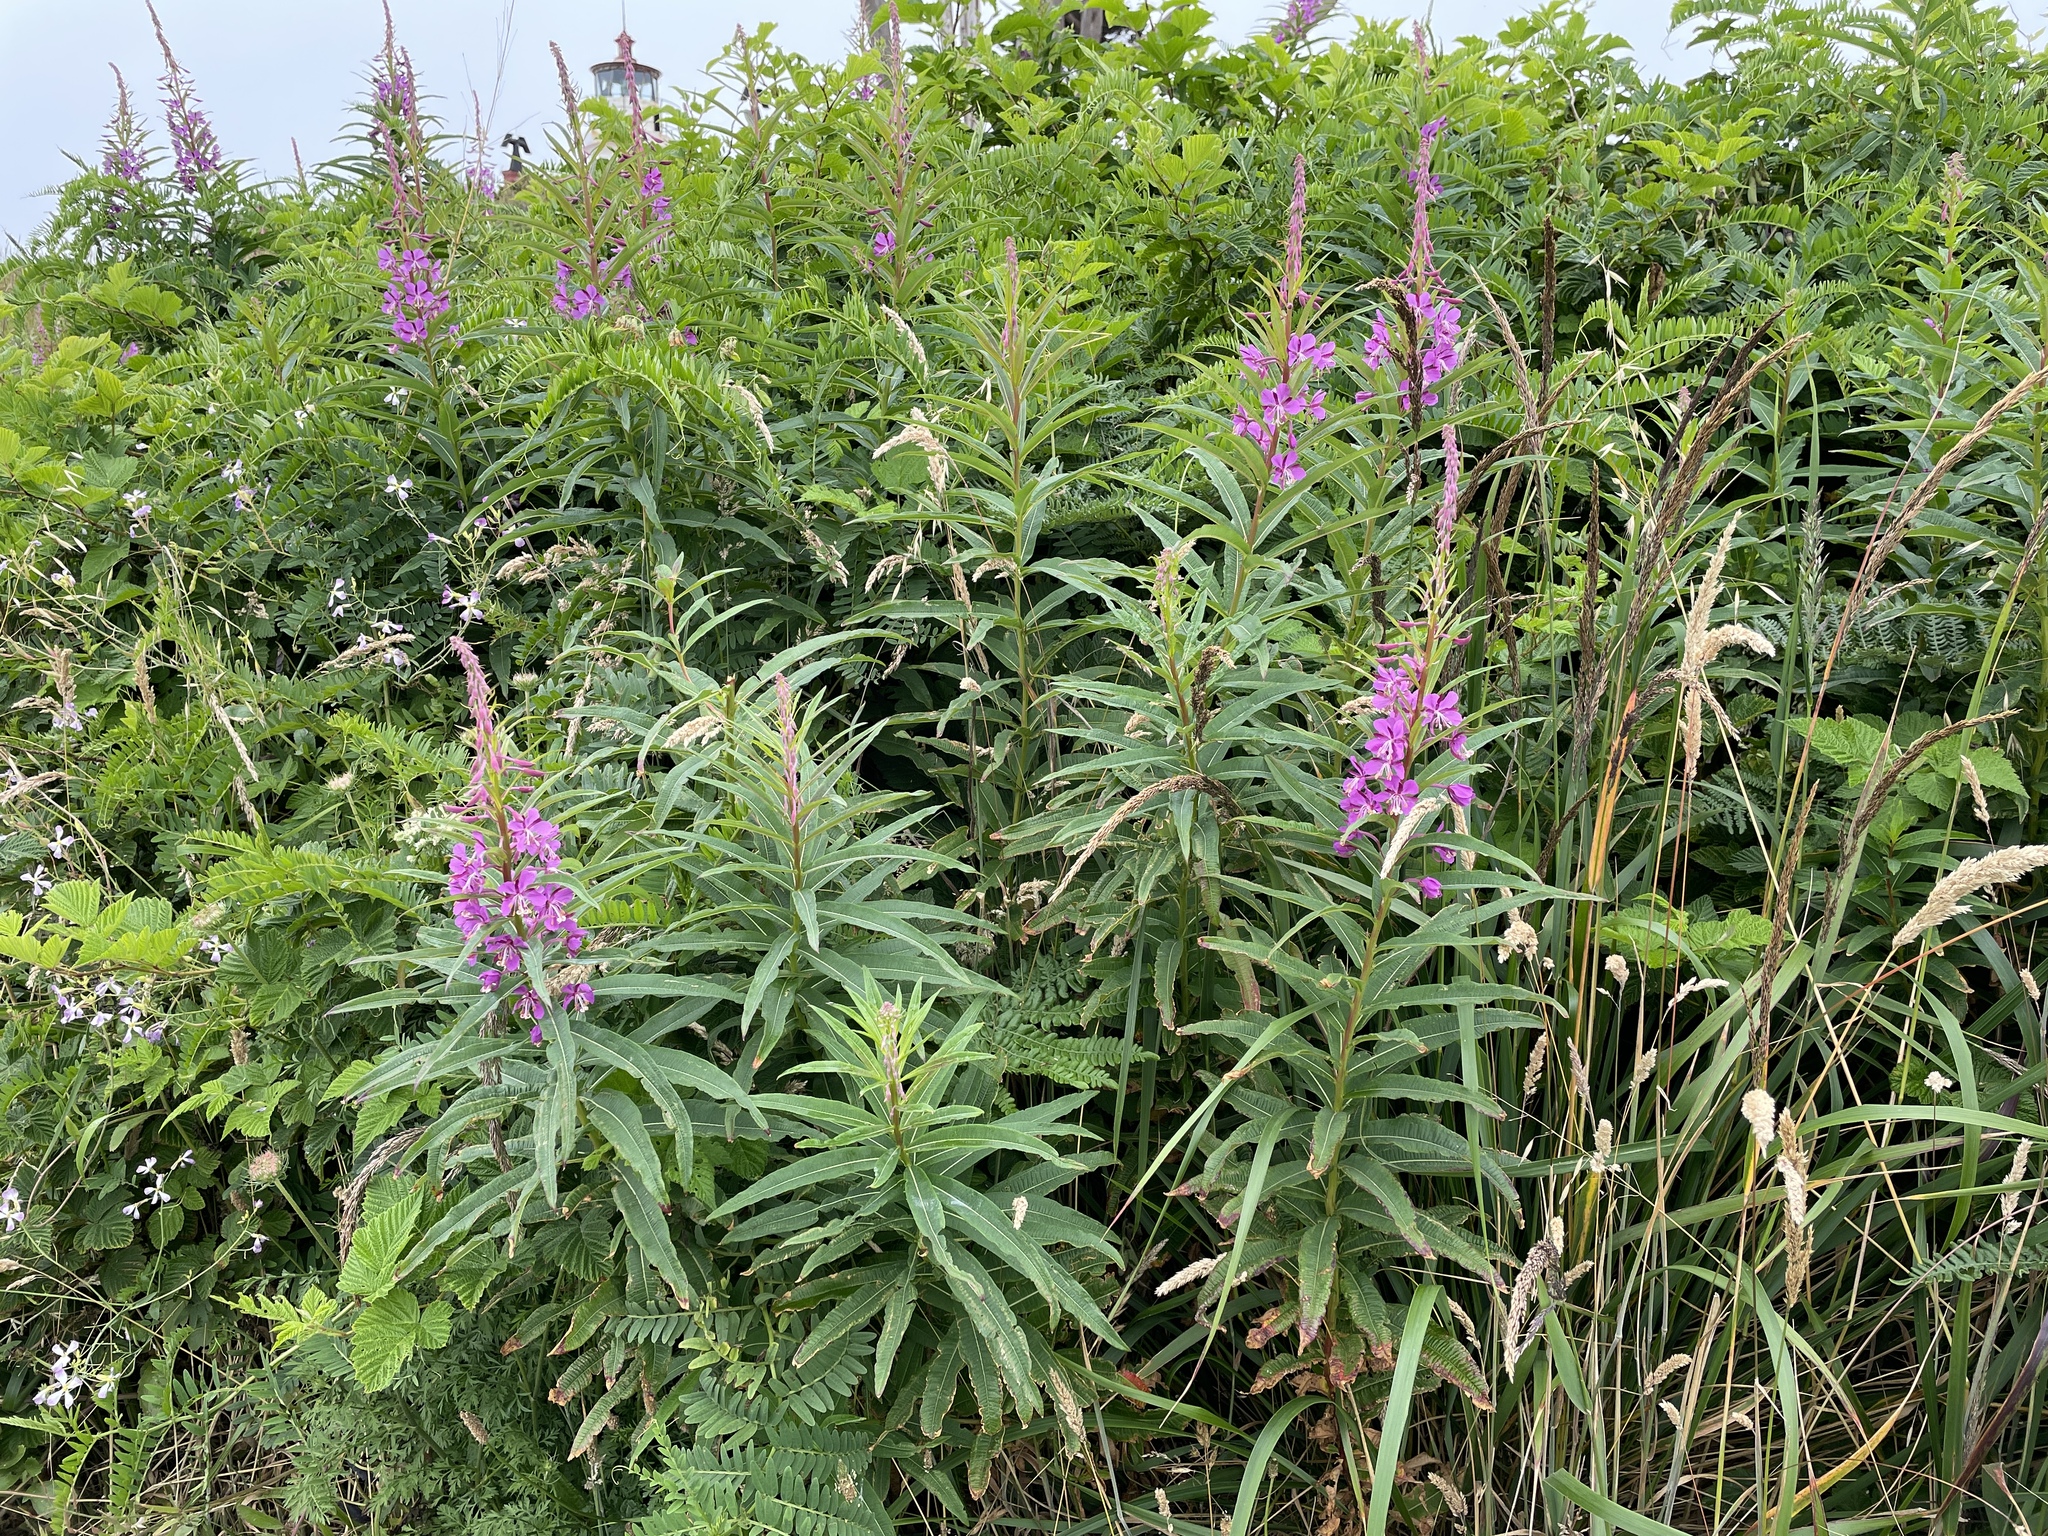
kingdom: Plantae
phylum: Tracheophyta
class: Magnoliopsida
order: Myrtales
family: Onagraceae
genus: Chamaenerion
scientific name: Chamaenerion angustifolium
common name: Fireweed
